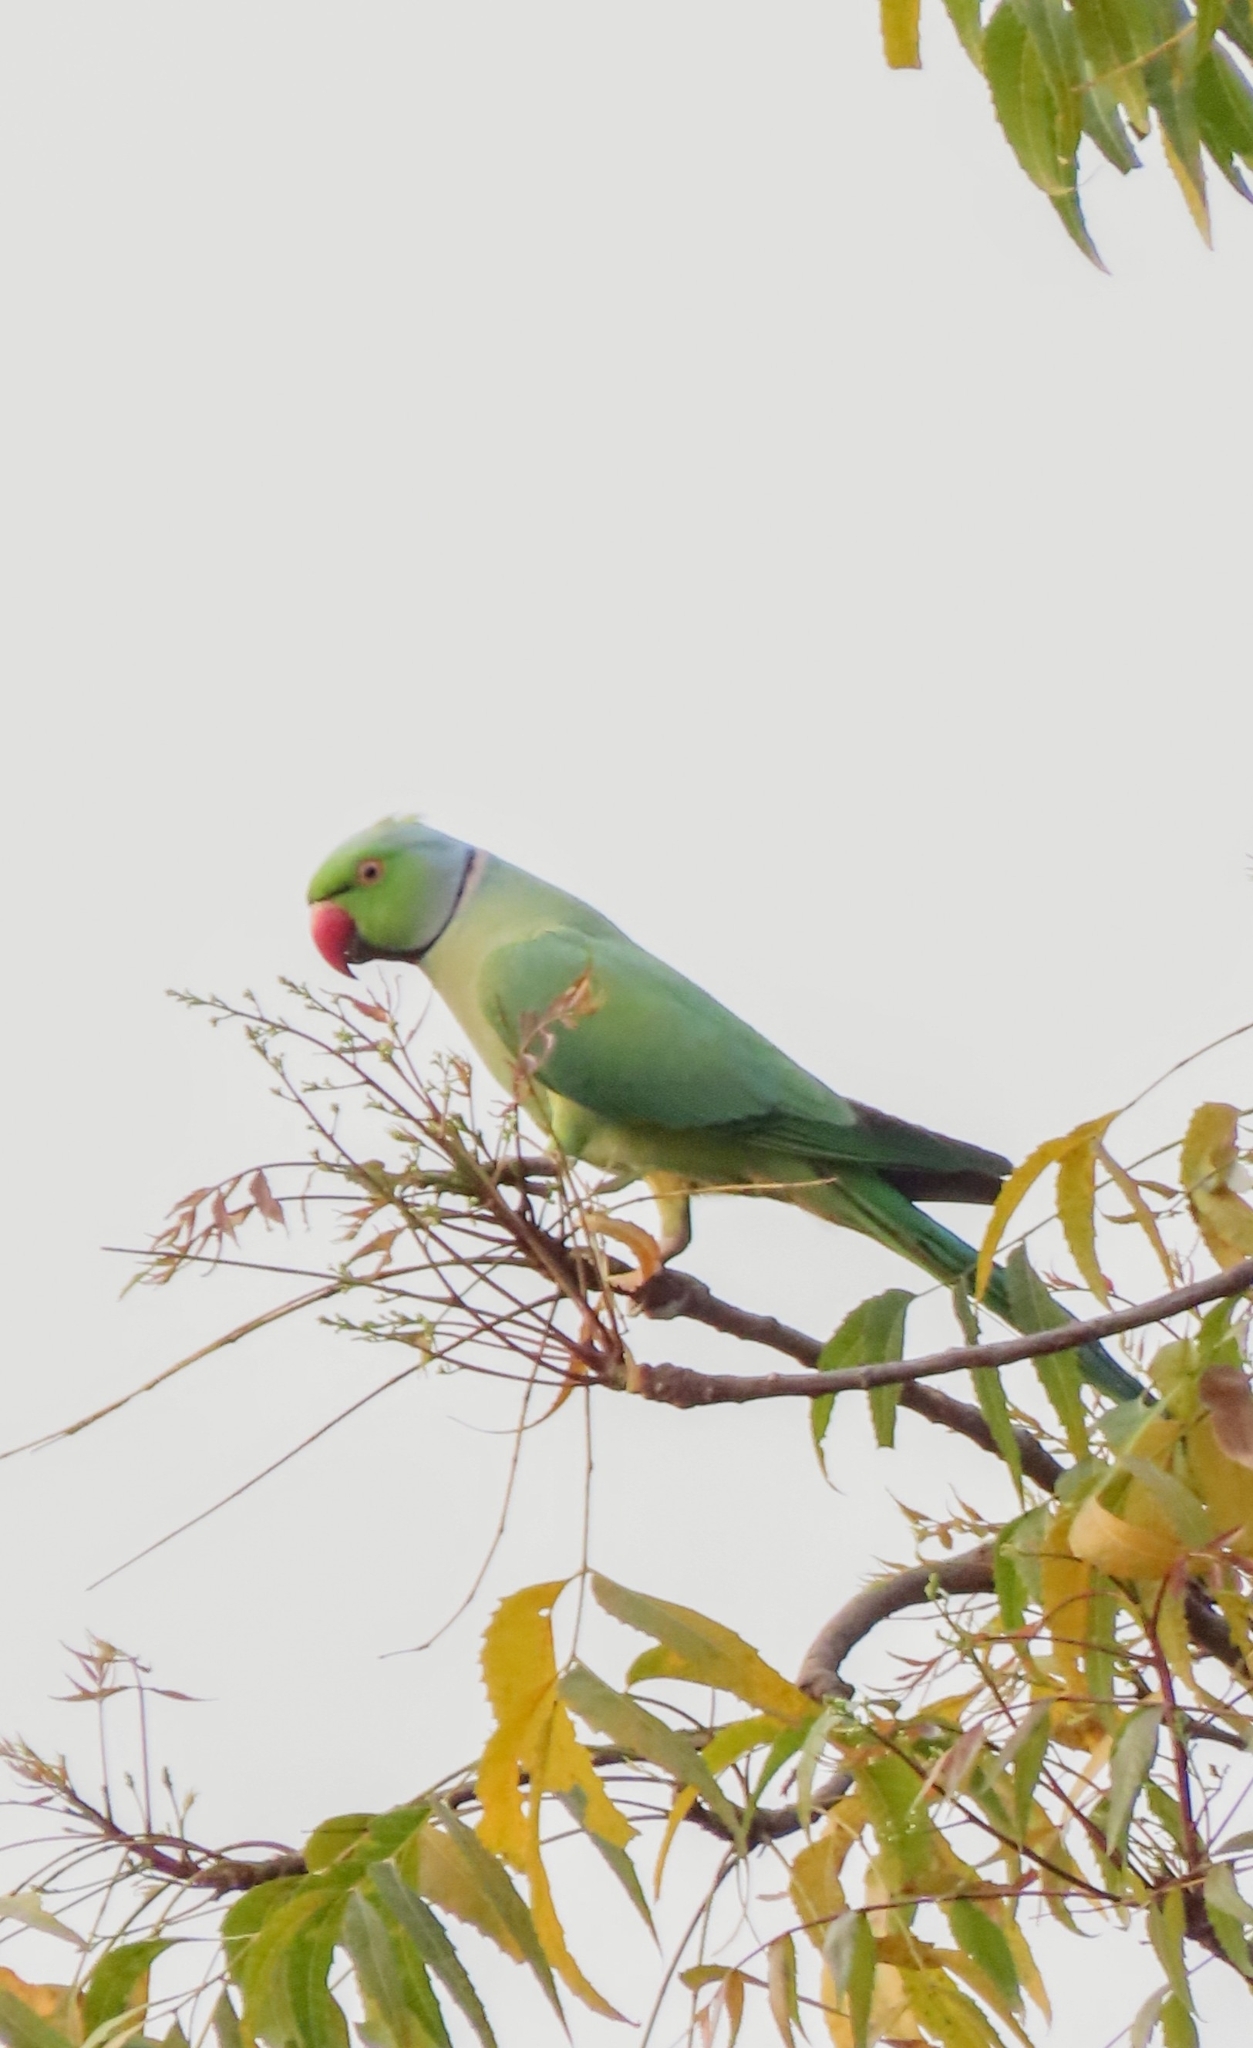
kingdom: Animalia
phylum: Chordata
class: Aves
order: Psittaciformes
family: Psittacidae
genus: Psittacula
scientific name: Psittacula krameri
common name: Rose-ringed parakeet
